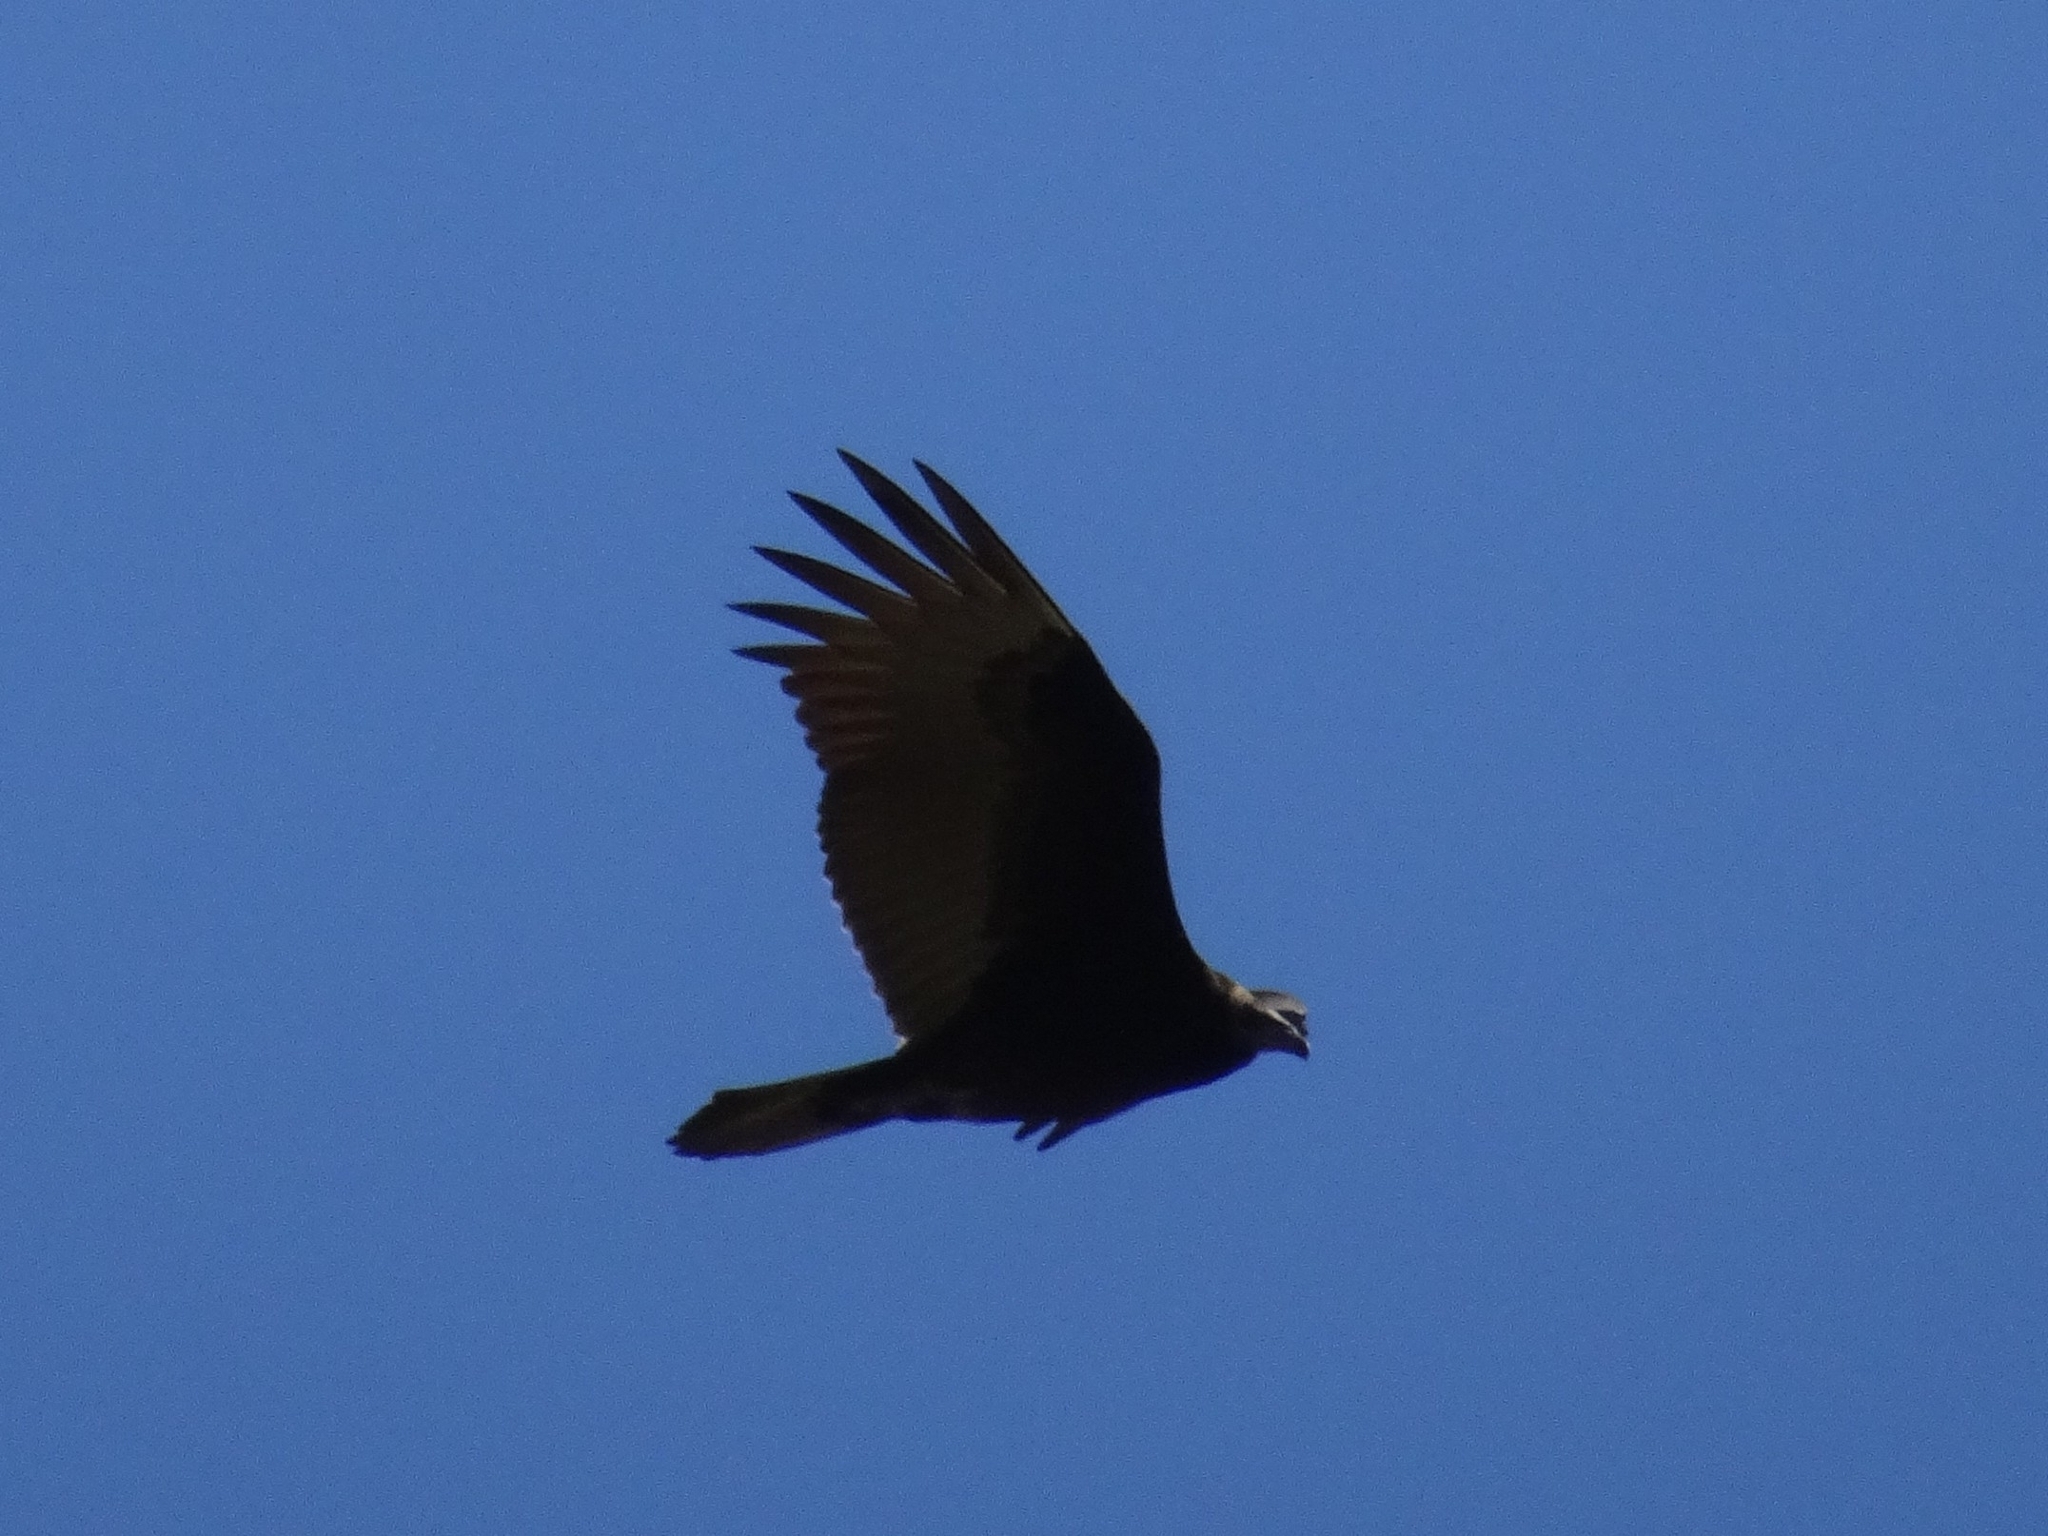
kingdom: Animalia
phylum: Chordata
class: Aves
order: Accipitriformes
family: Cathartidae
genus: Cathartes
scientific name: Cathartes aura
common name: Turkey vulture
